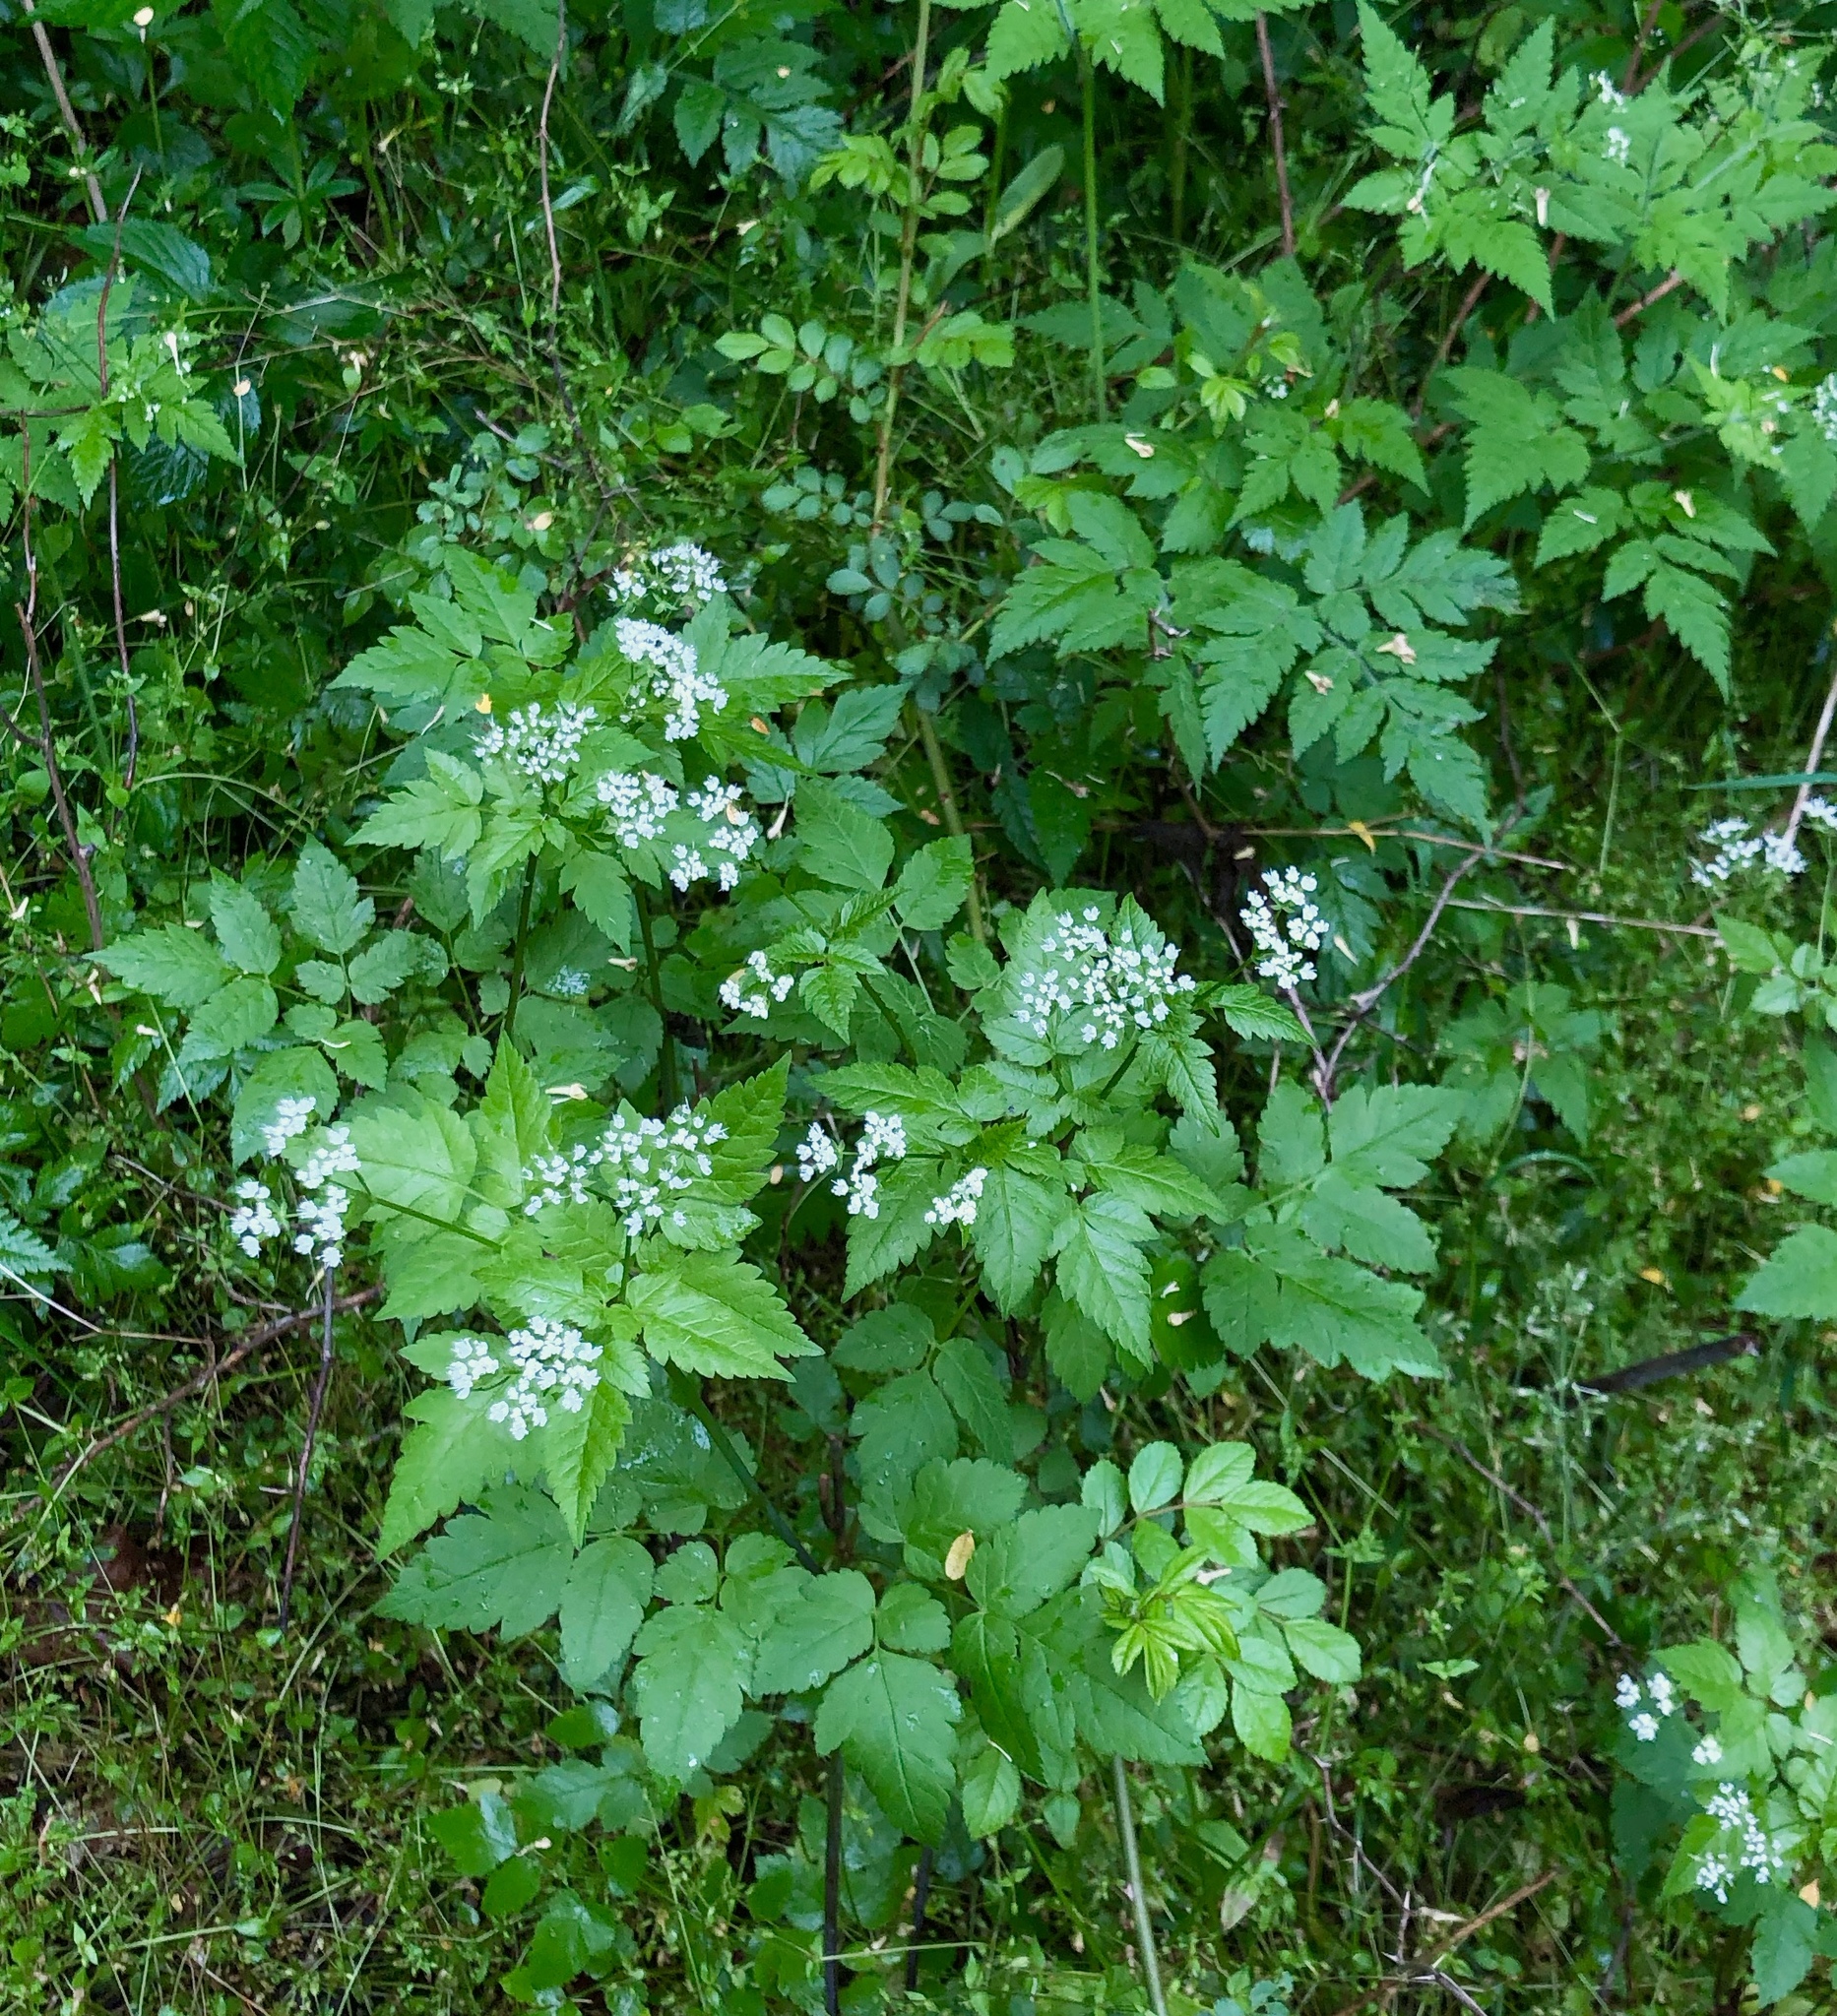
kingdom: Plantae
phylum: Tracheophyta
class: Magnoliopsida
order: Apiales
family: Apiaceae
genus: Osmorhiza
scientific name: Osmorhiza longistylis
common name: Smooth sweet cicely
